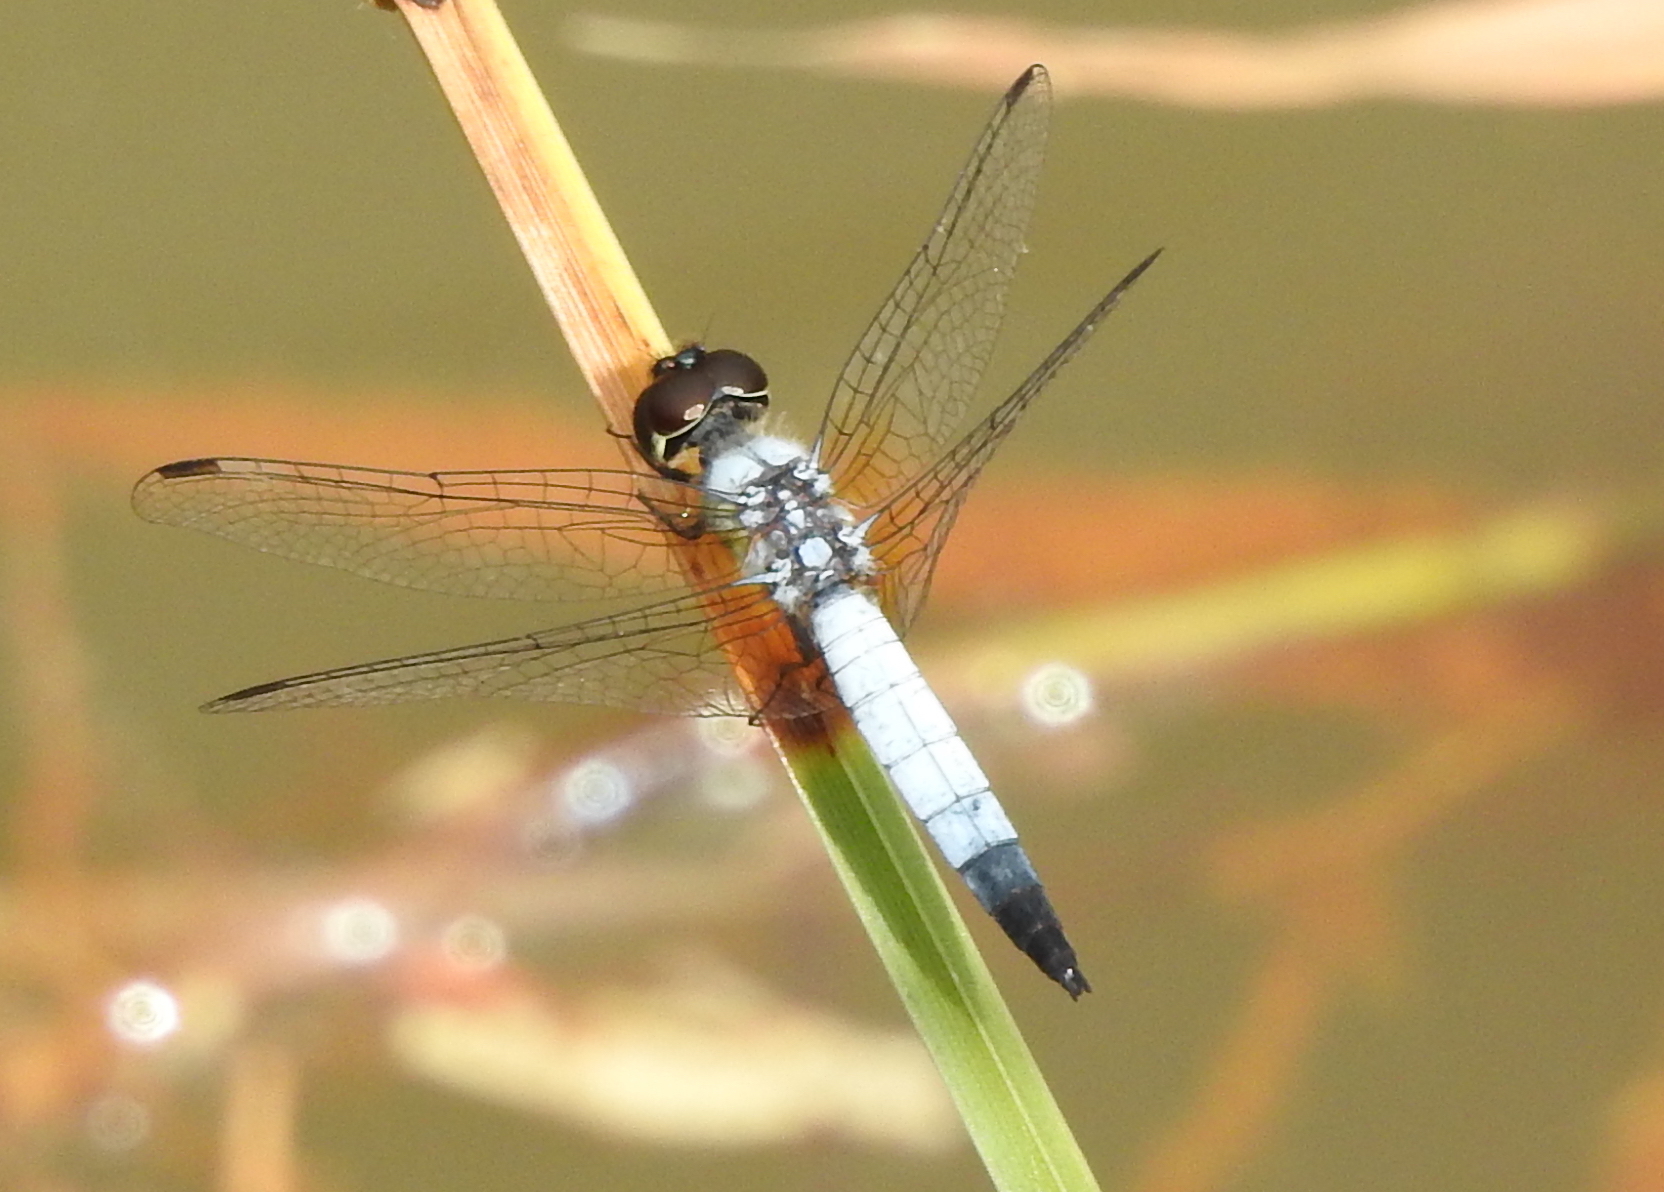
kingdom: Animalia
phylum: Arthropoda
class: Insecta
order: Odonata
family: Libellulidae
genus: Aethriamanta
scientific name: Aethriamanta gracilis
